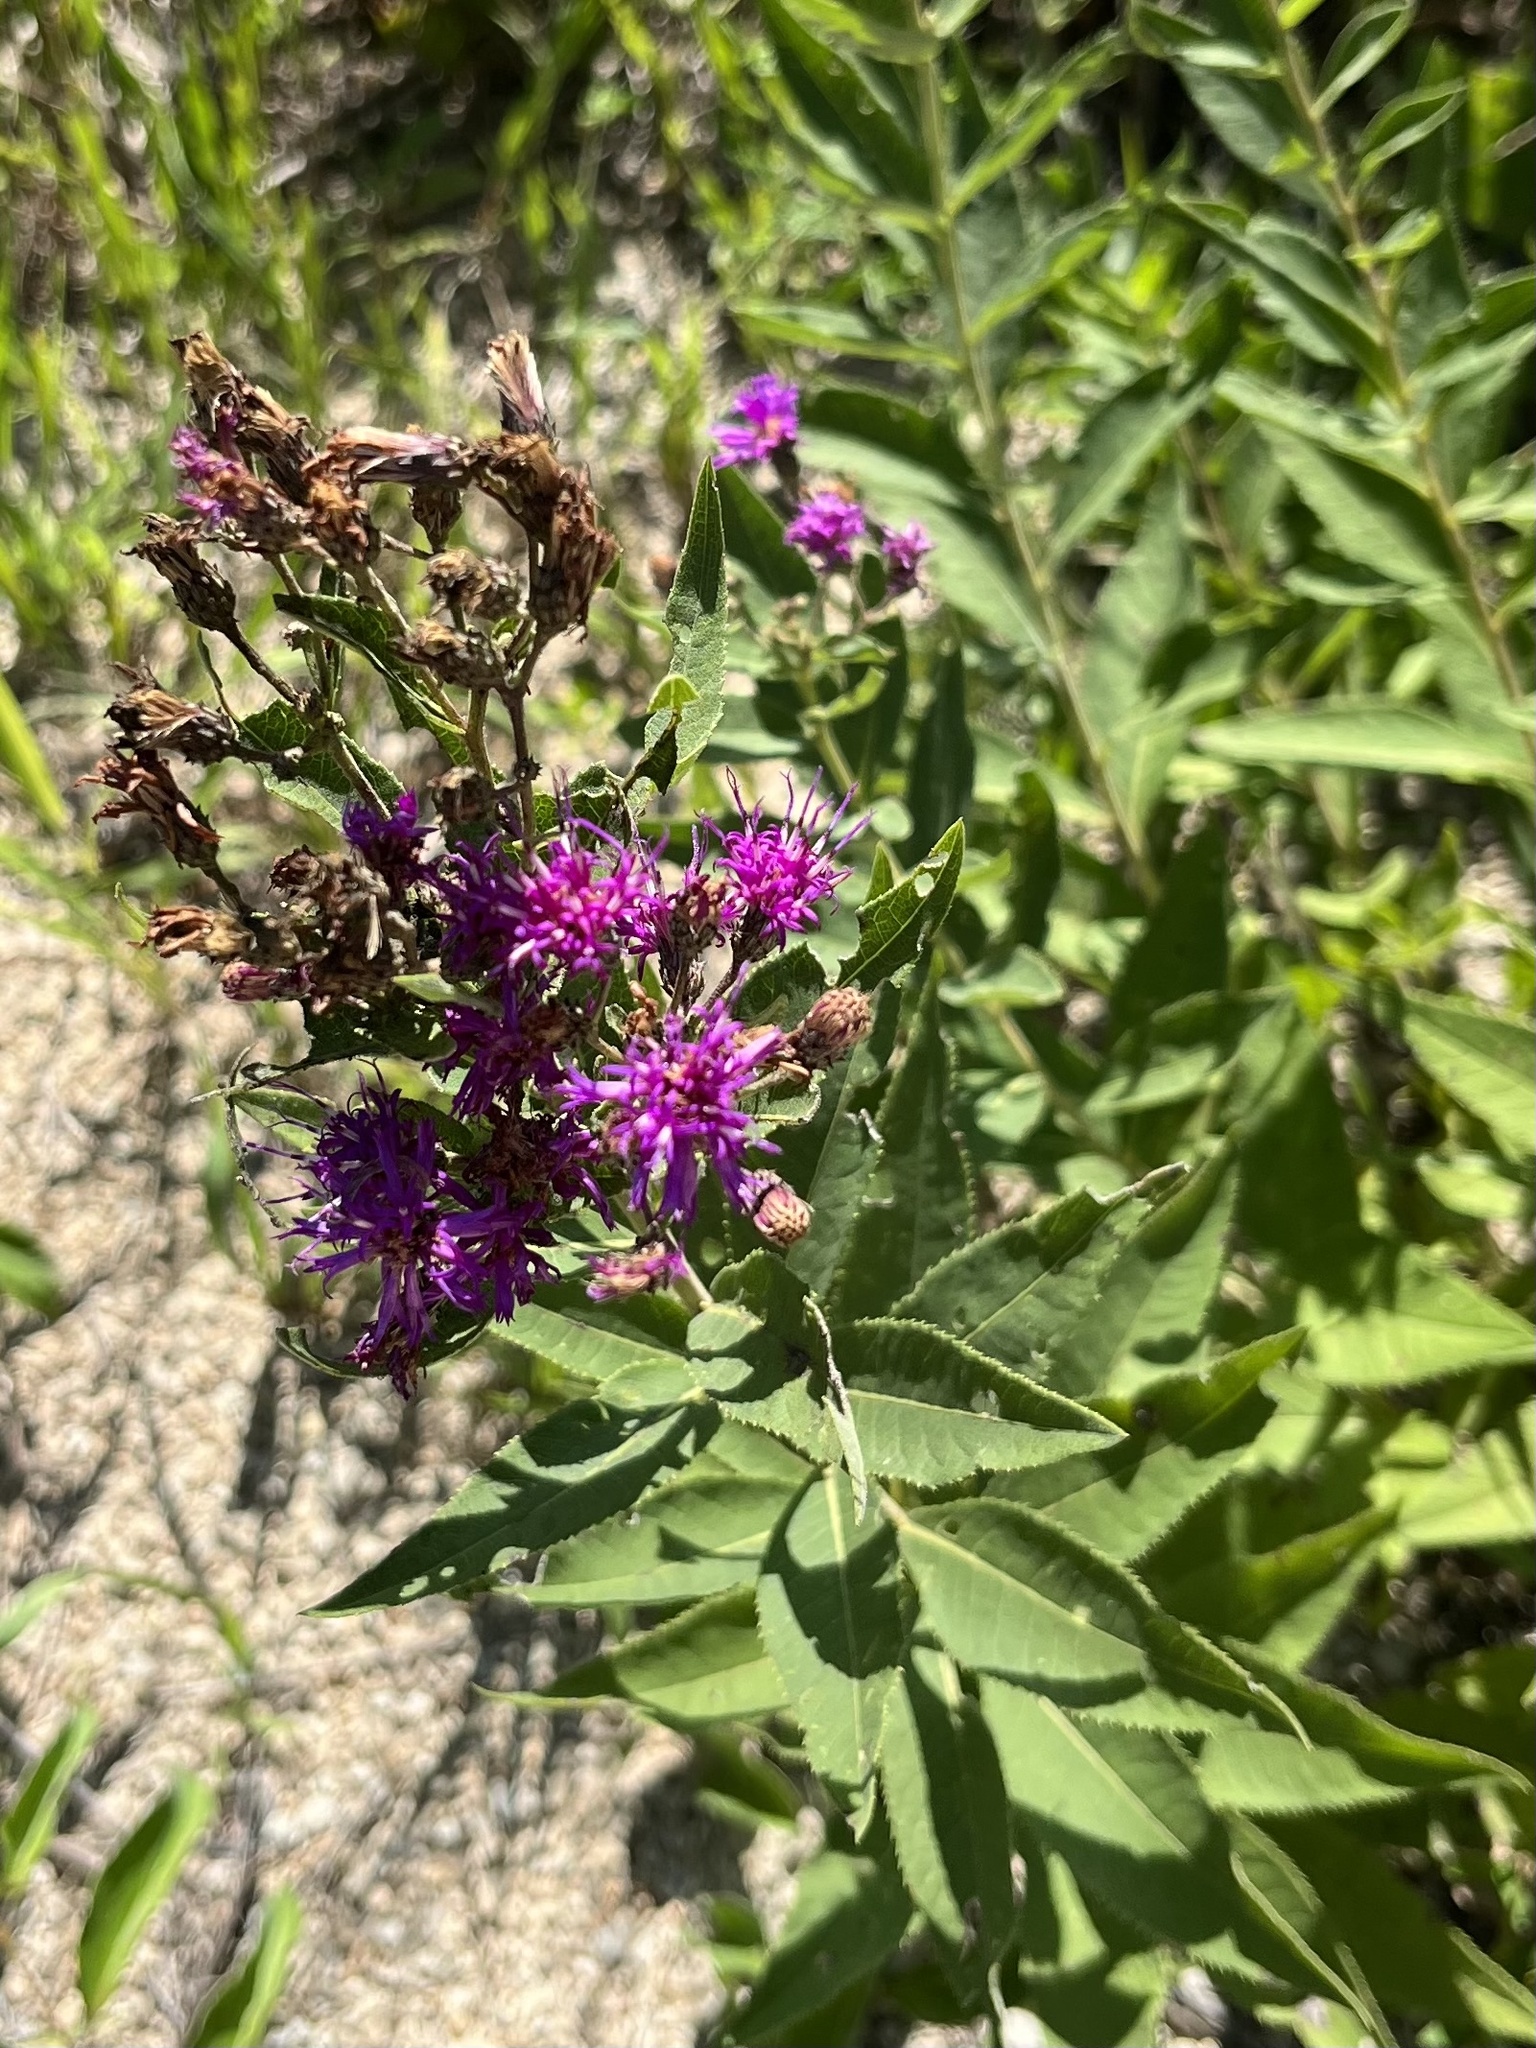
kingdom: Plantae
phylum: Tracheophyta
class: Magnoliopsida
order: Asterales
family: Asteraceae
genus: Vernonia
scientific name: Vernonia baldwinii
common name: Western ironweed
